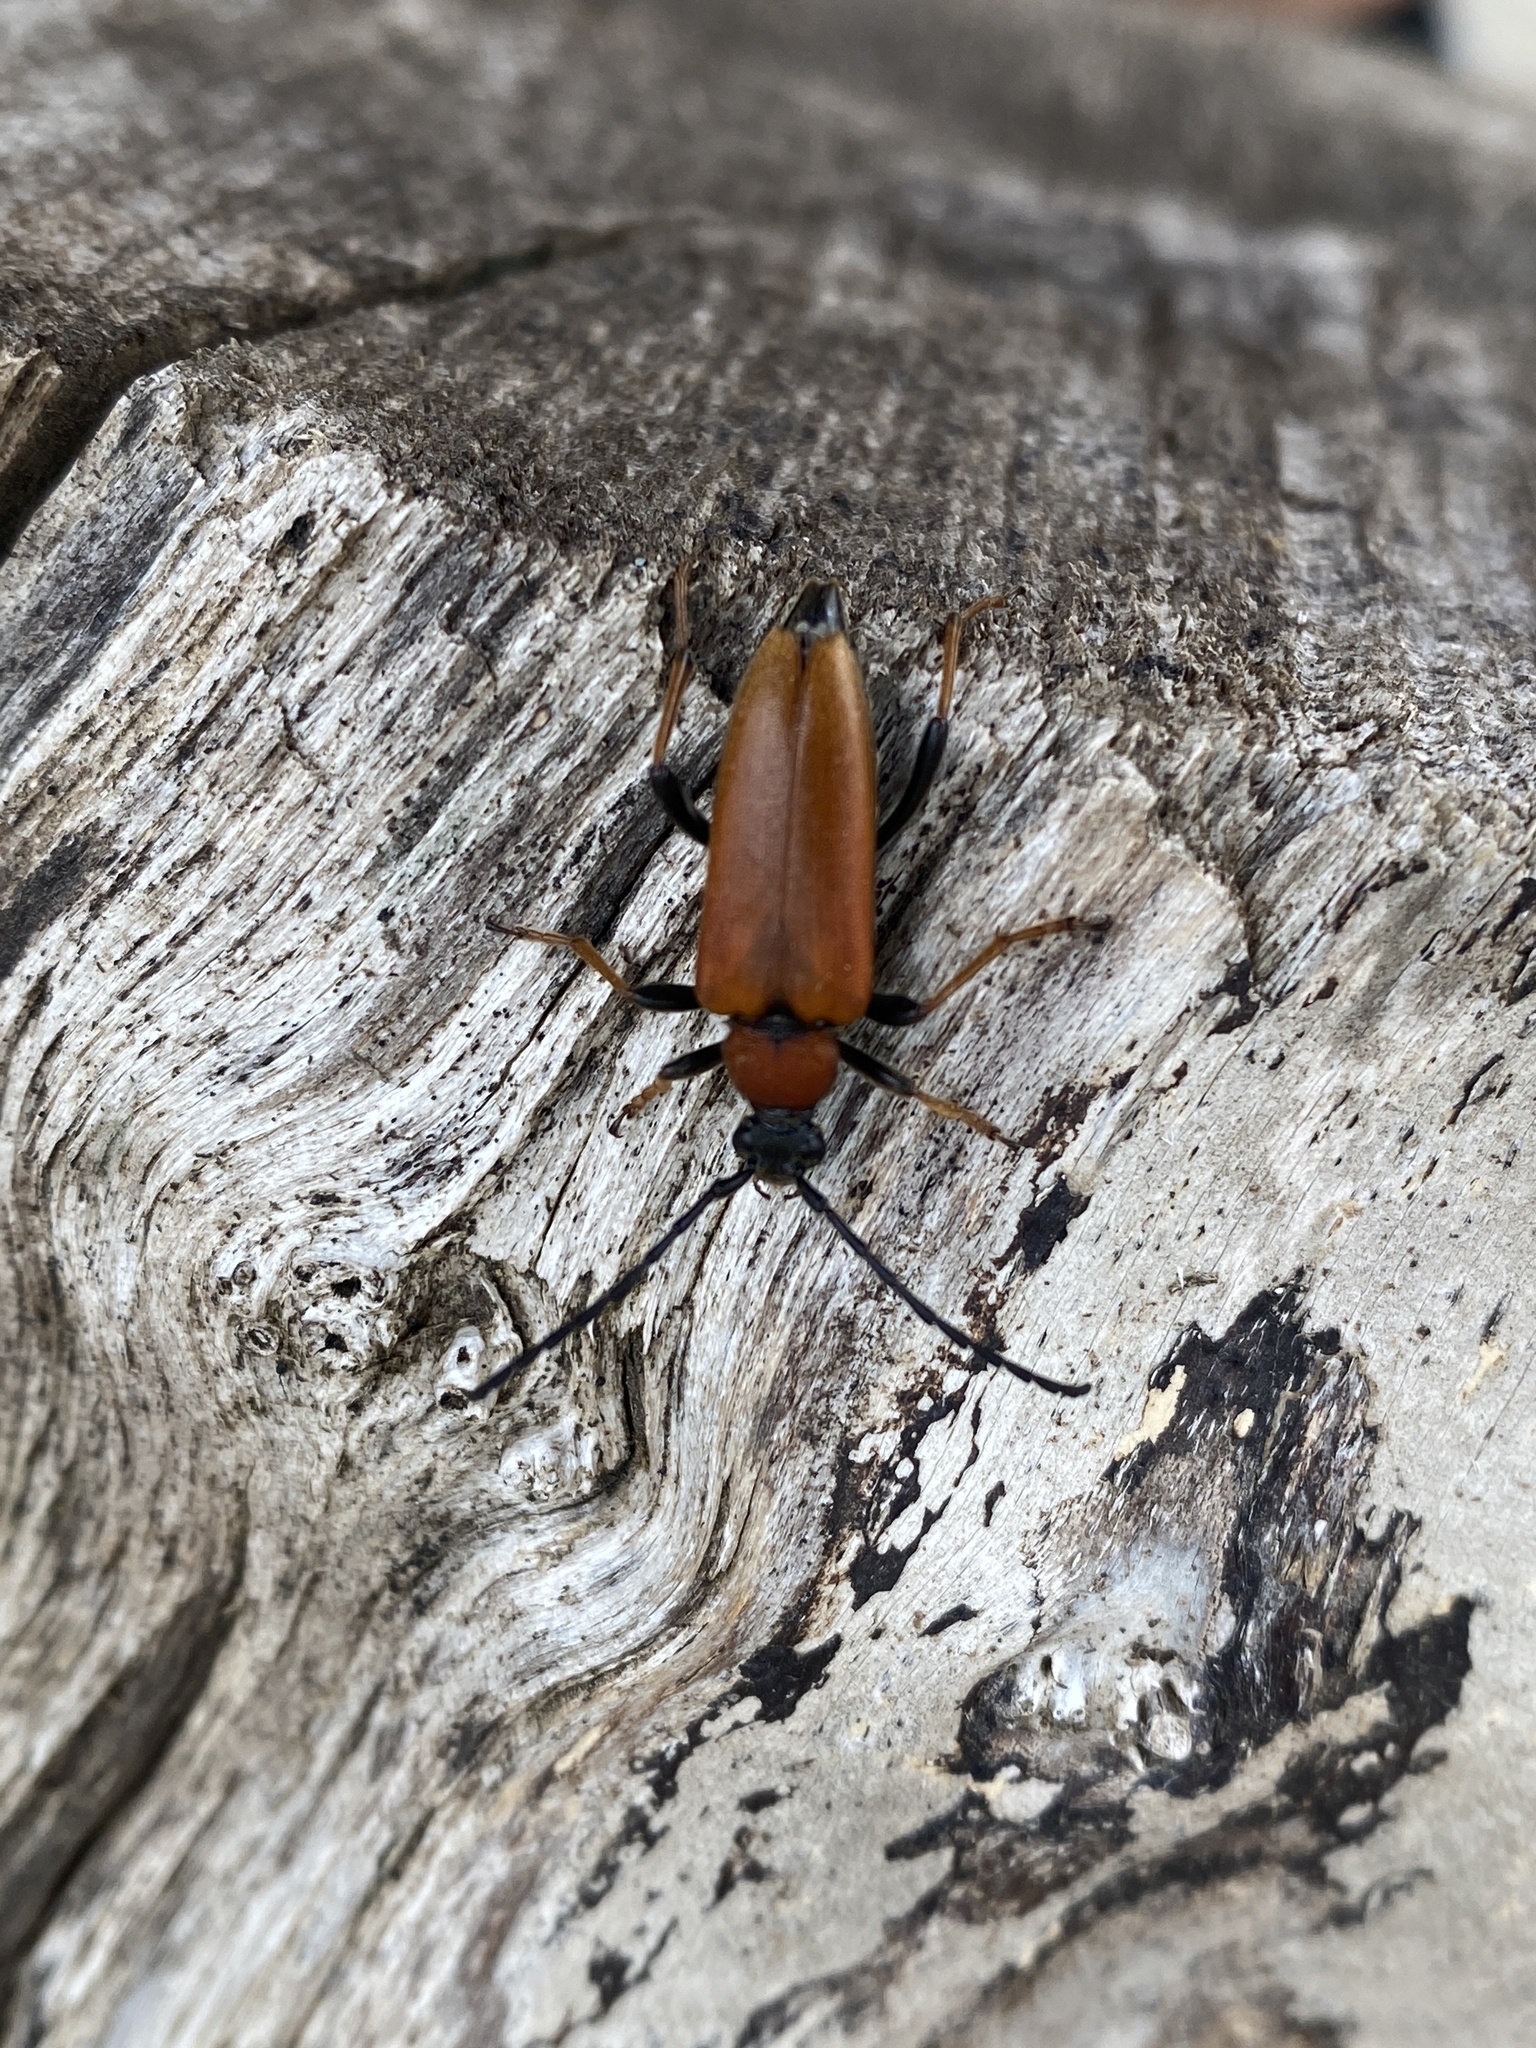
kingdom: Animalia
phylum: Arthropoda
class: Insecta
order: Coleoptera
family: Cerambycidae
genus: Stictoleptura
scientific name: Stictoleptura rubra
